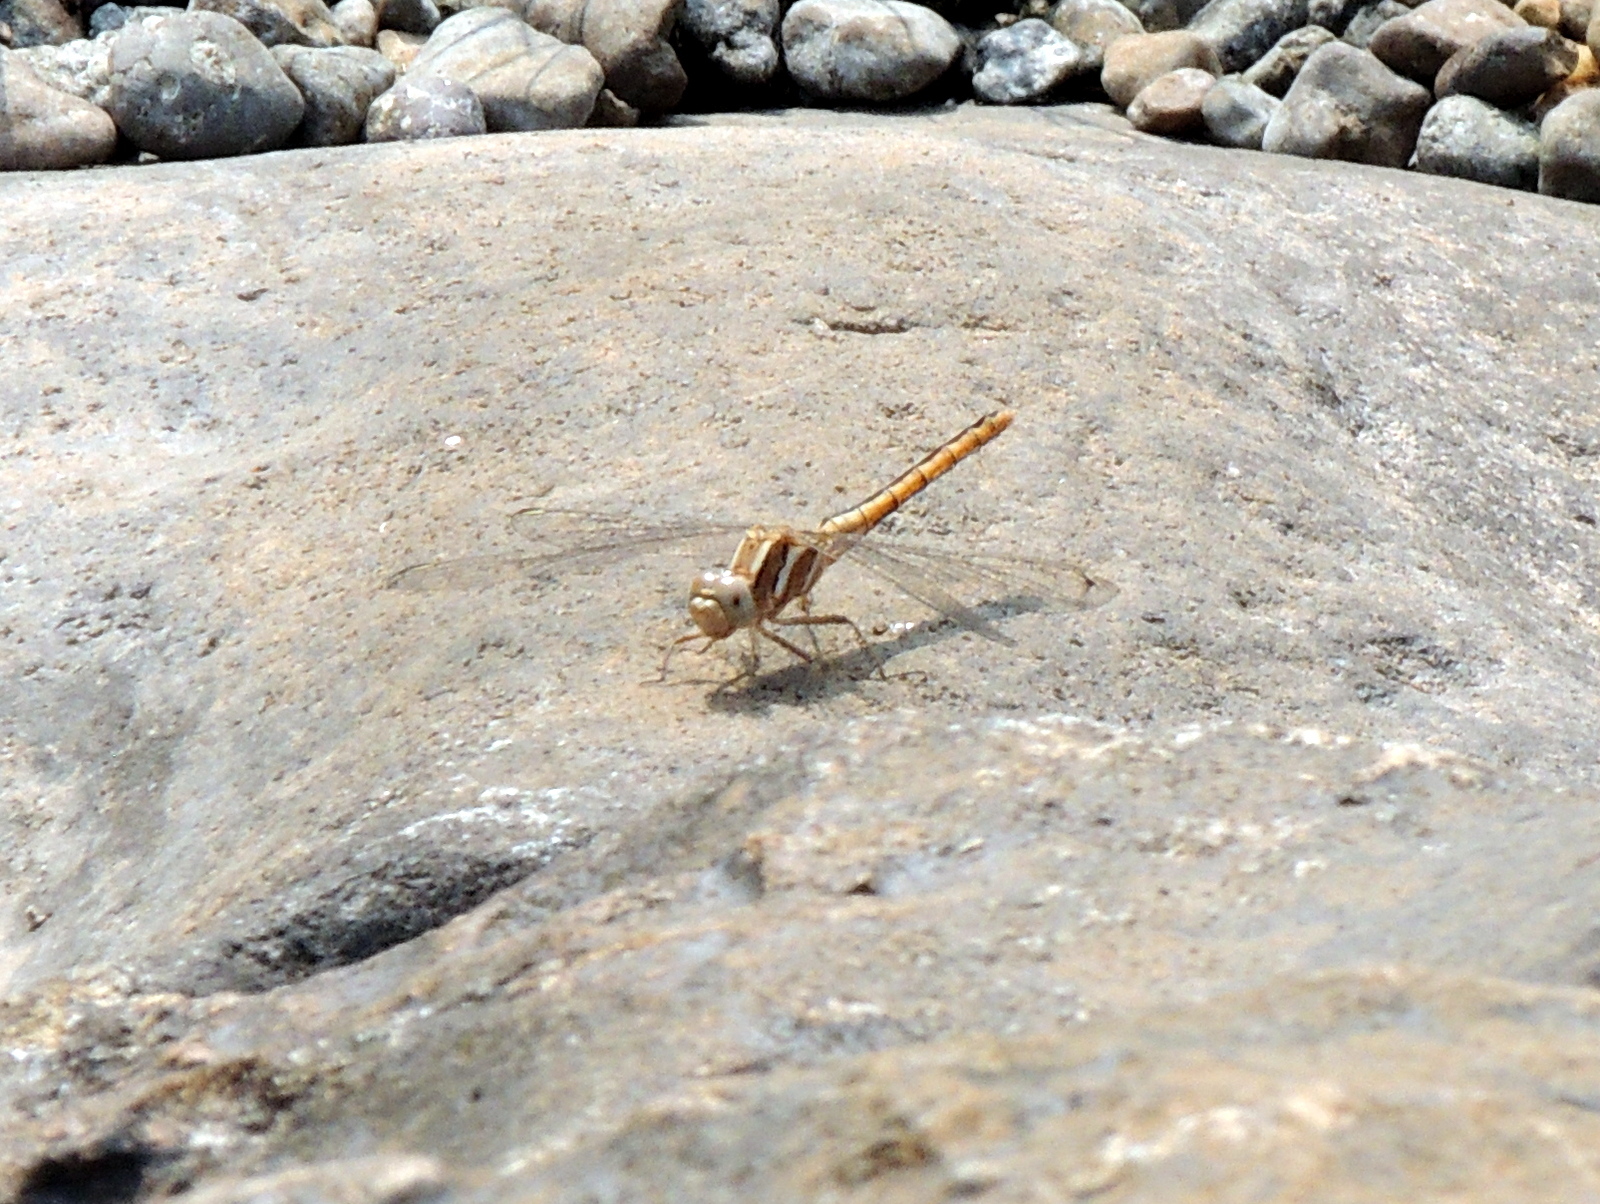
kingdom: Animalia
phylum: Arthropoda
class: Insecta
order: Odonata
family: Libellulidae
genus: Orthetrum
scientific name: Orthetrum taeniolatum
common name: Small skimmer
